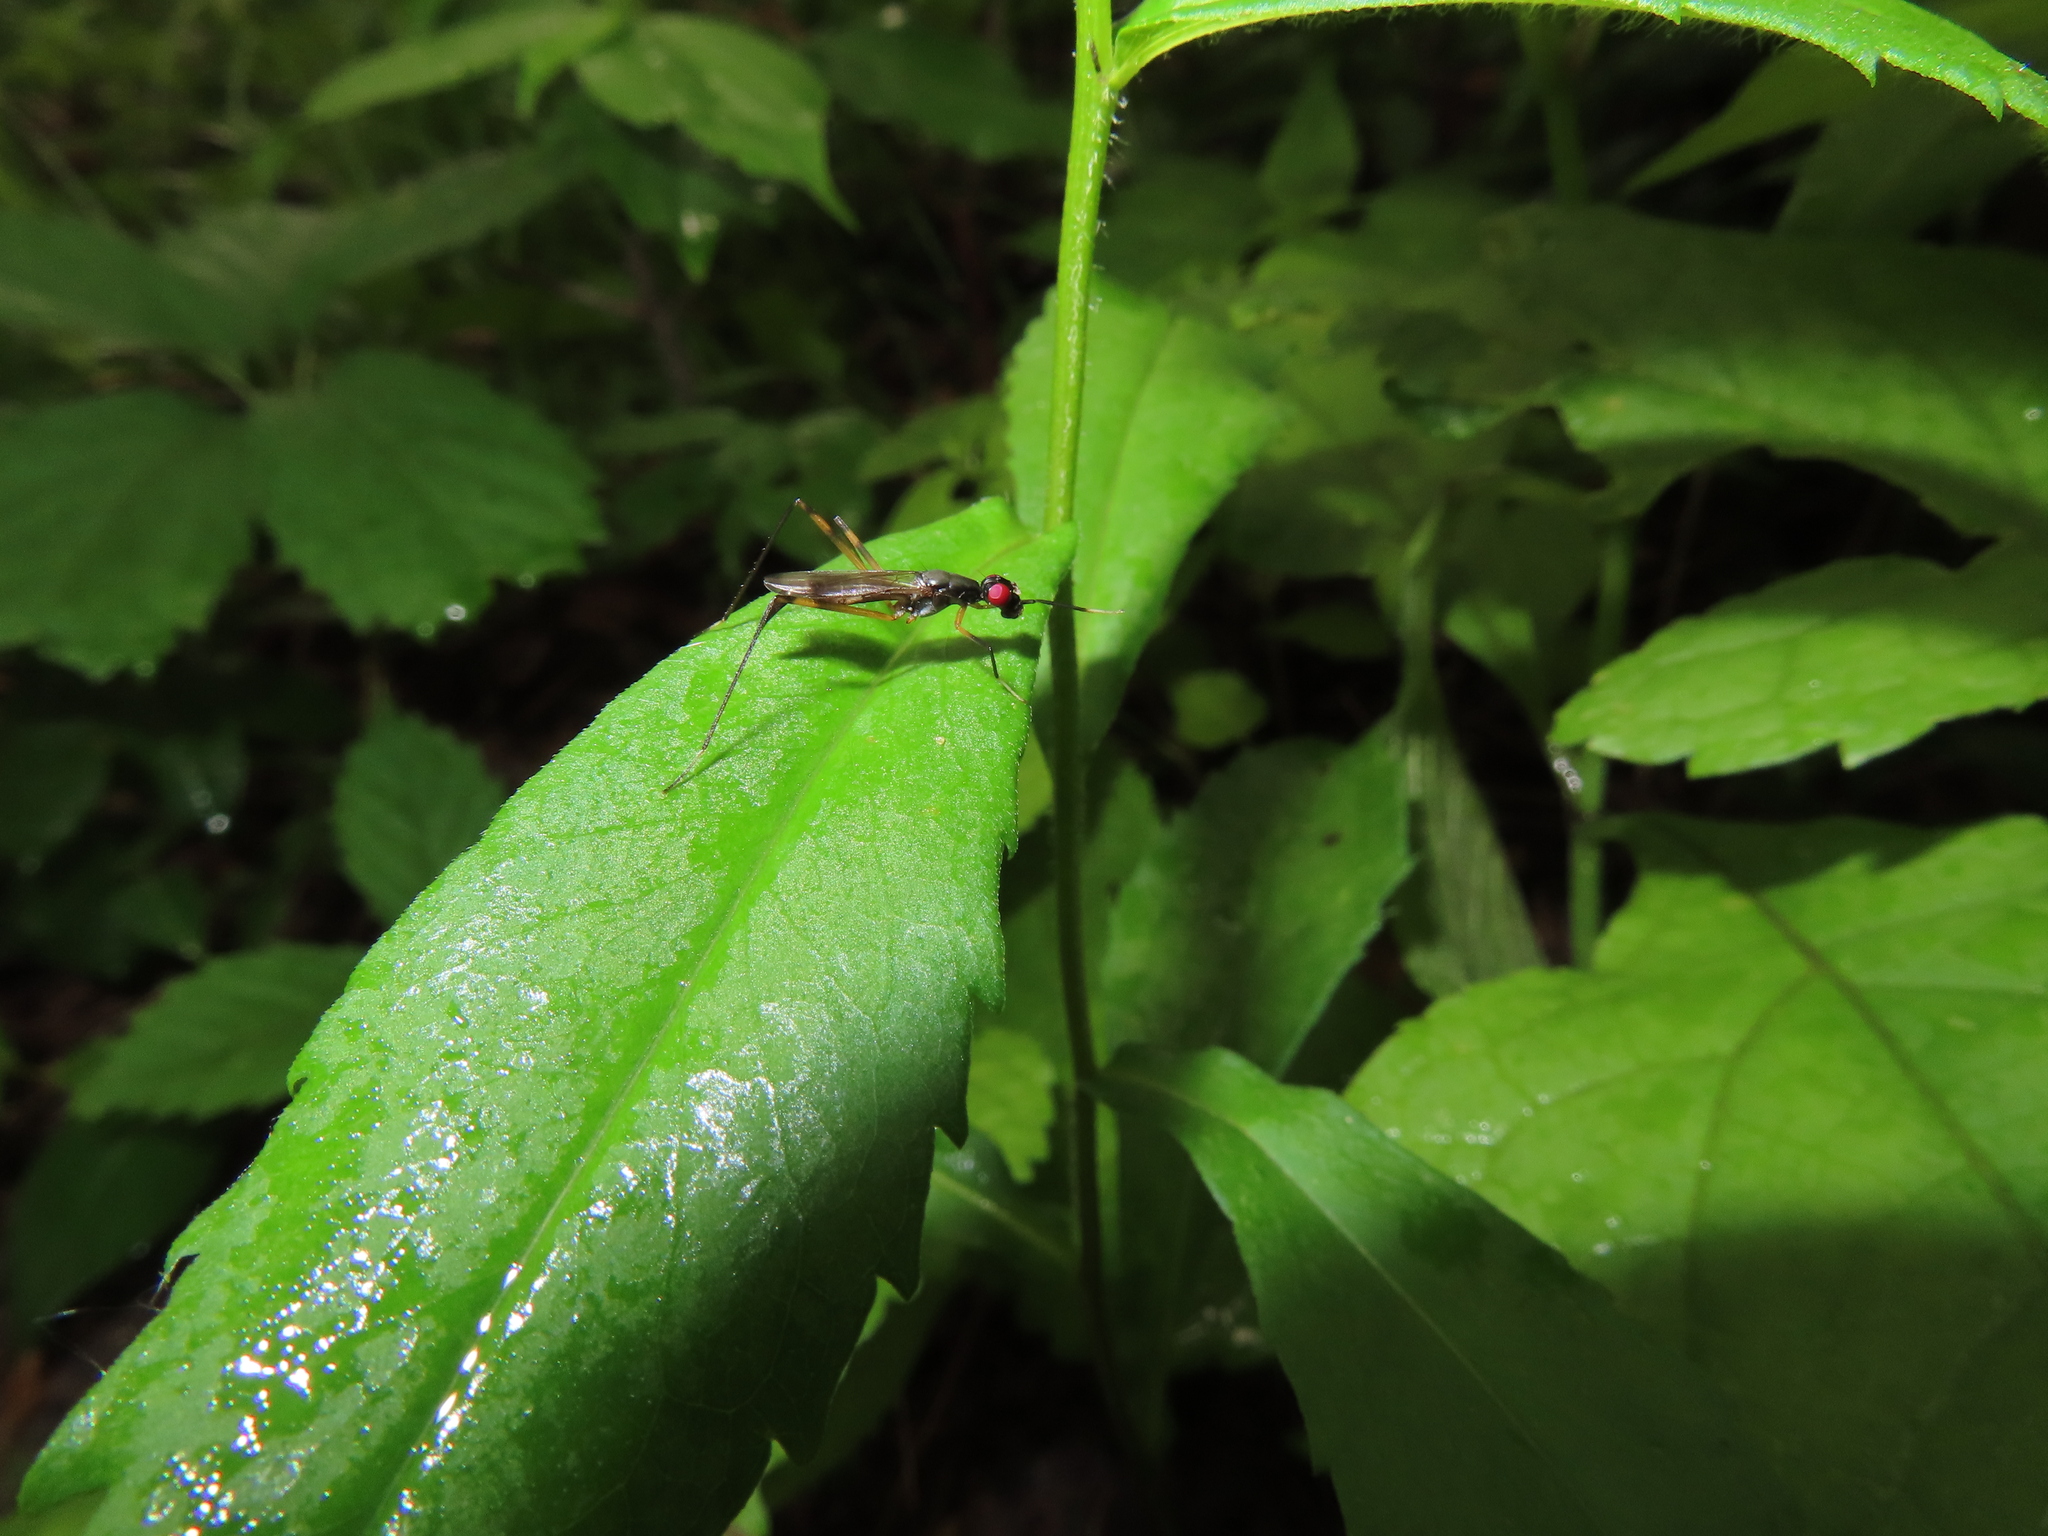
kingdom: Animalia
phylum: Arthropoda
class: Insecta
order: Diptera
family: Micropezidae
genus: Rainieria
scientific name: Rainieria antennaepes
